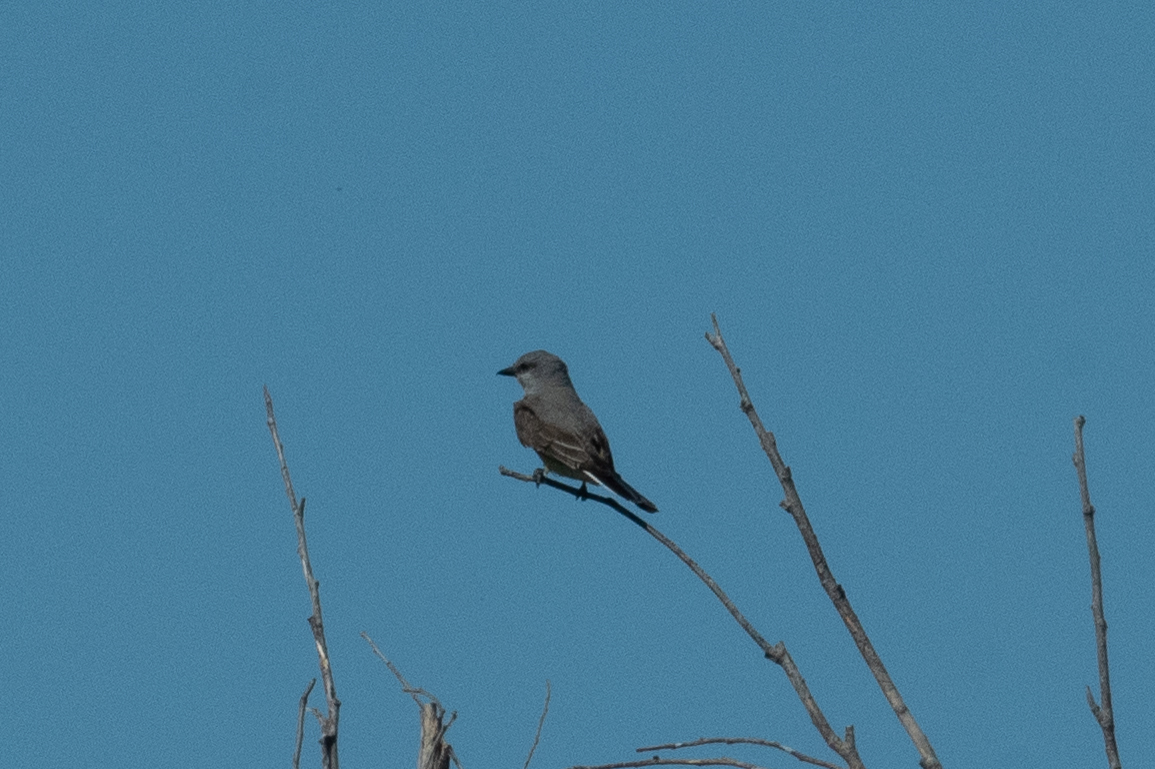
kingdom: Animalia
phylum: Chordata
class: Aves
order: Passeriformes
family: Tyrannidae
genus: Tyrannus
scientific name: Tyrannus verticalis
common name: Western kingbird
